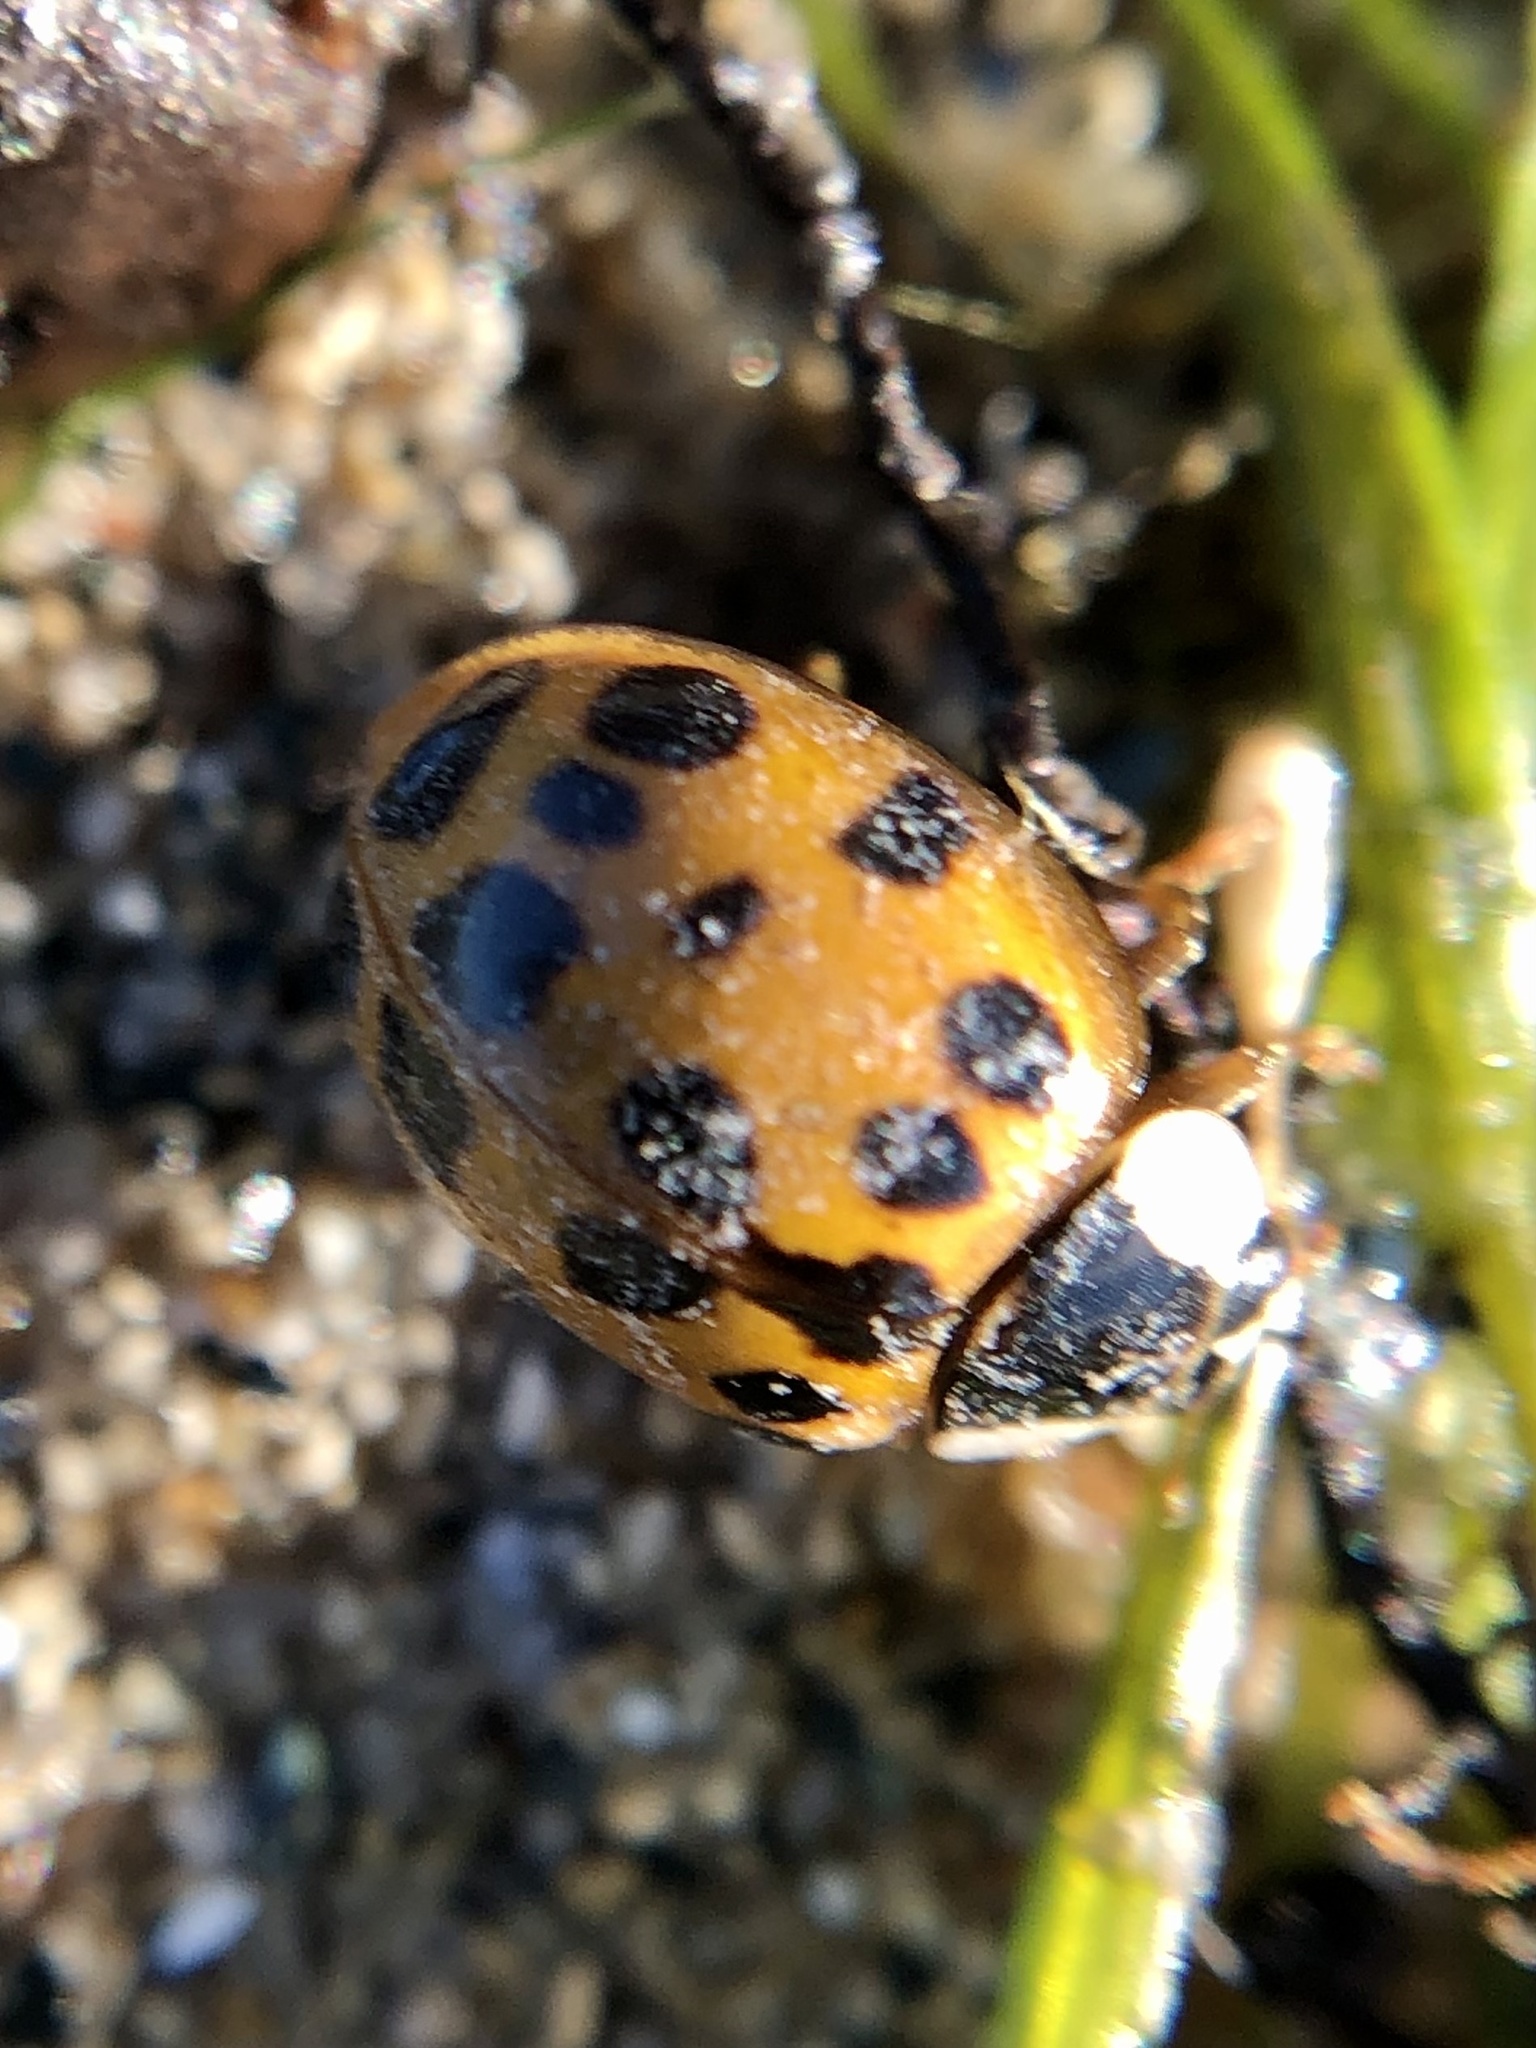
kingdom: Animalia
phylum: Arthropoda
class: Insecta
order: Coleoptera
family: Coccinellidae
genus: Harmonia
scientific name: Harmonia axyridis
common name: Harlequin ladybird
